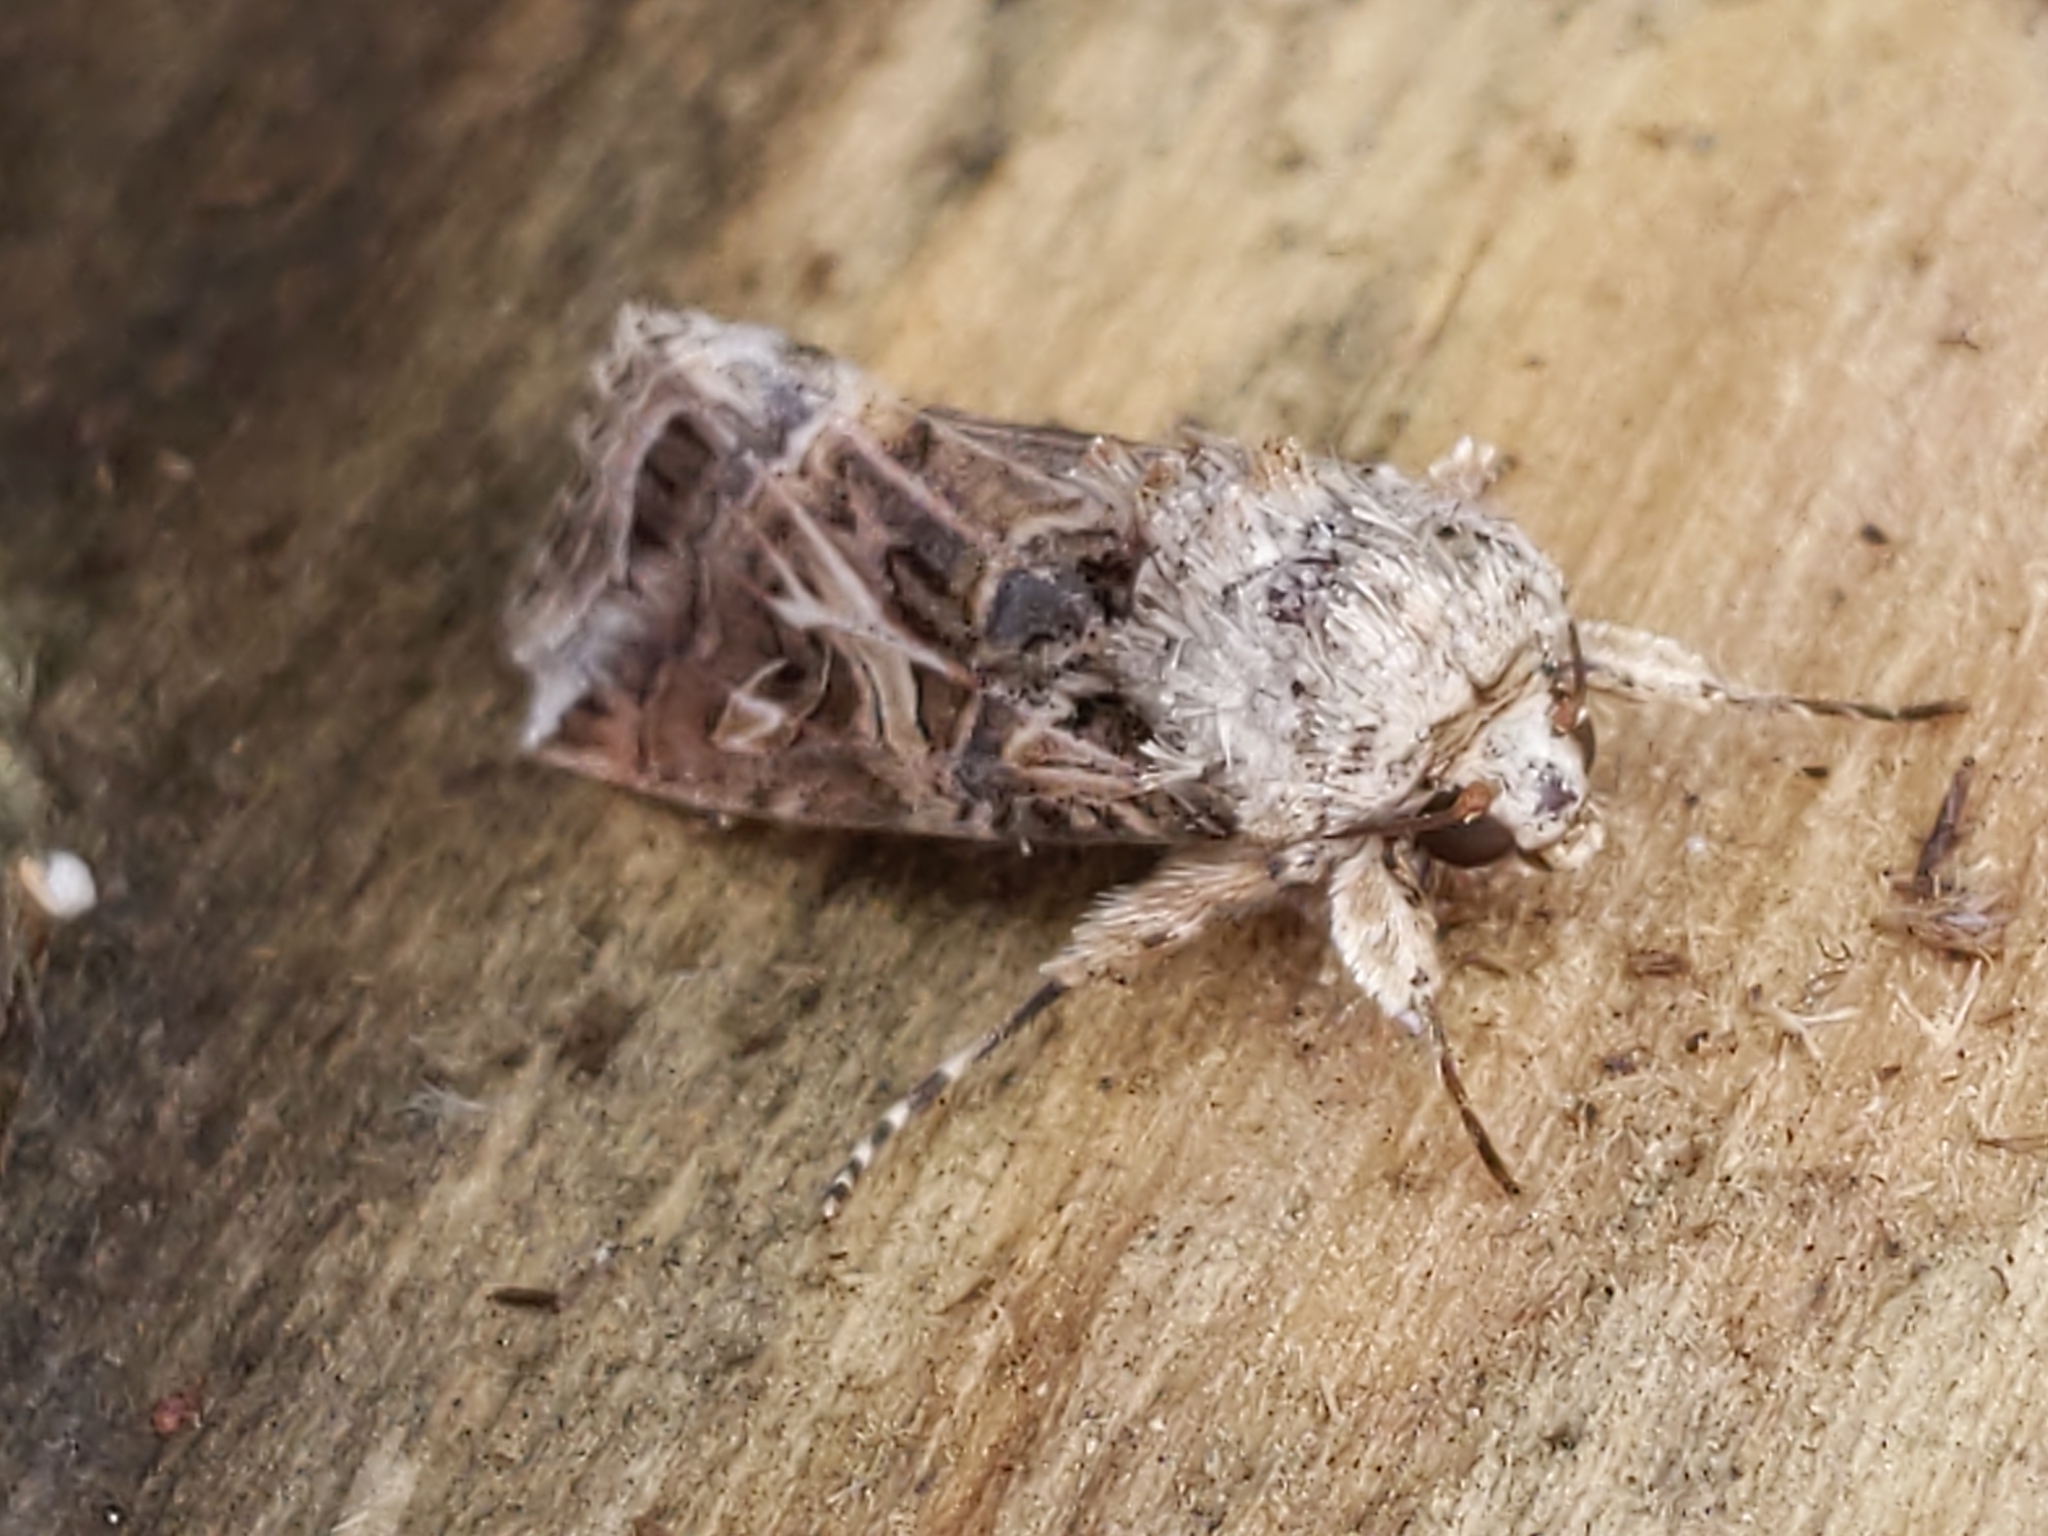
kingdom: Animalia
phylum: Arthropoda
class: Insecta
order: Lepidoptera
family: Noctuidae
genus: Spodoptera
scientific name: Spodoptera ornithogalli
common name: Yellow-striped armyworm
